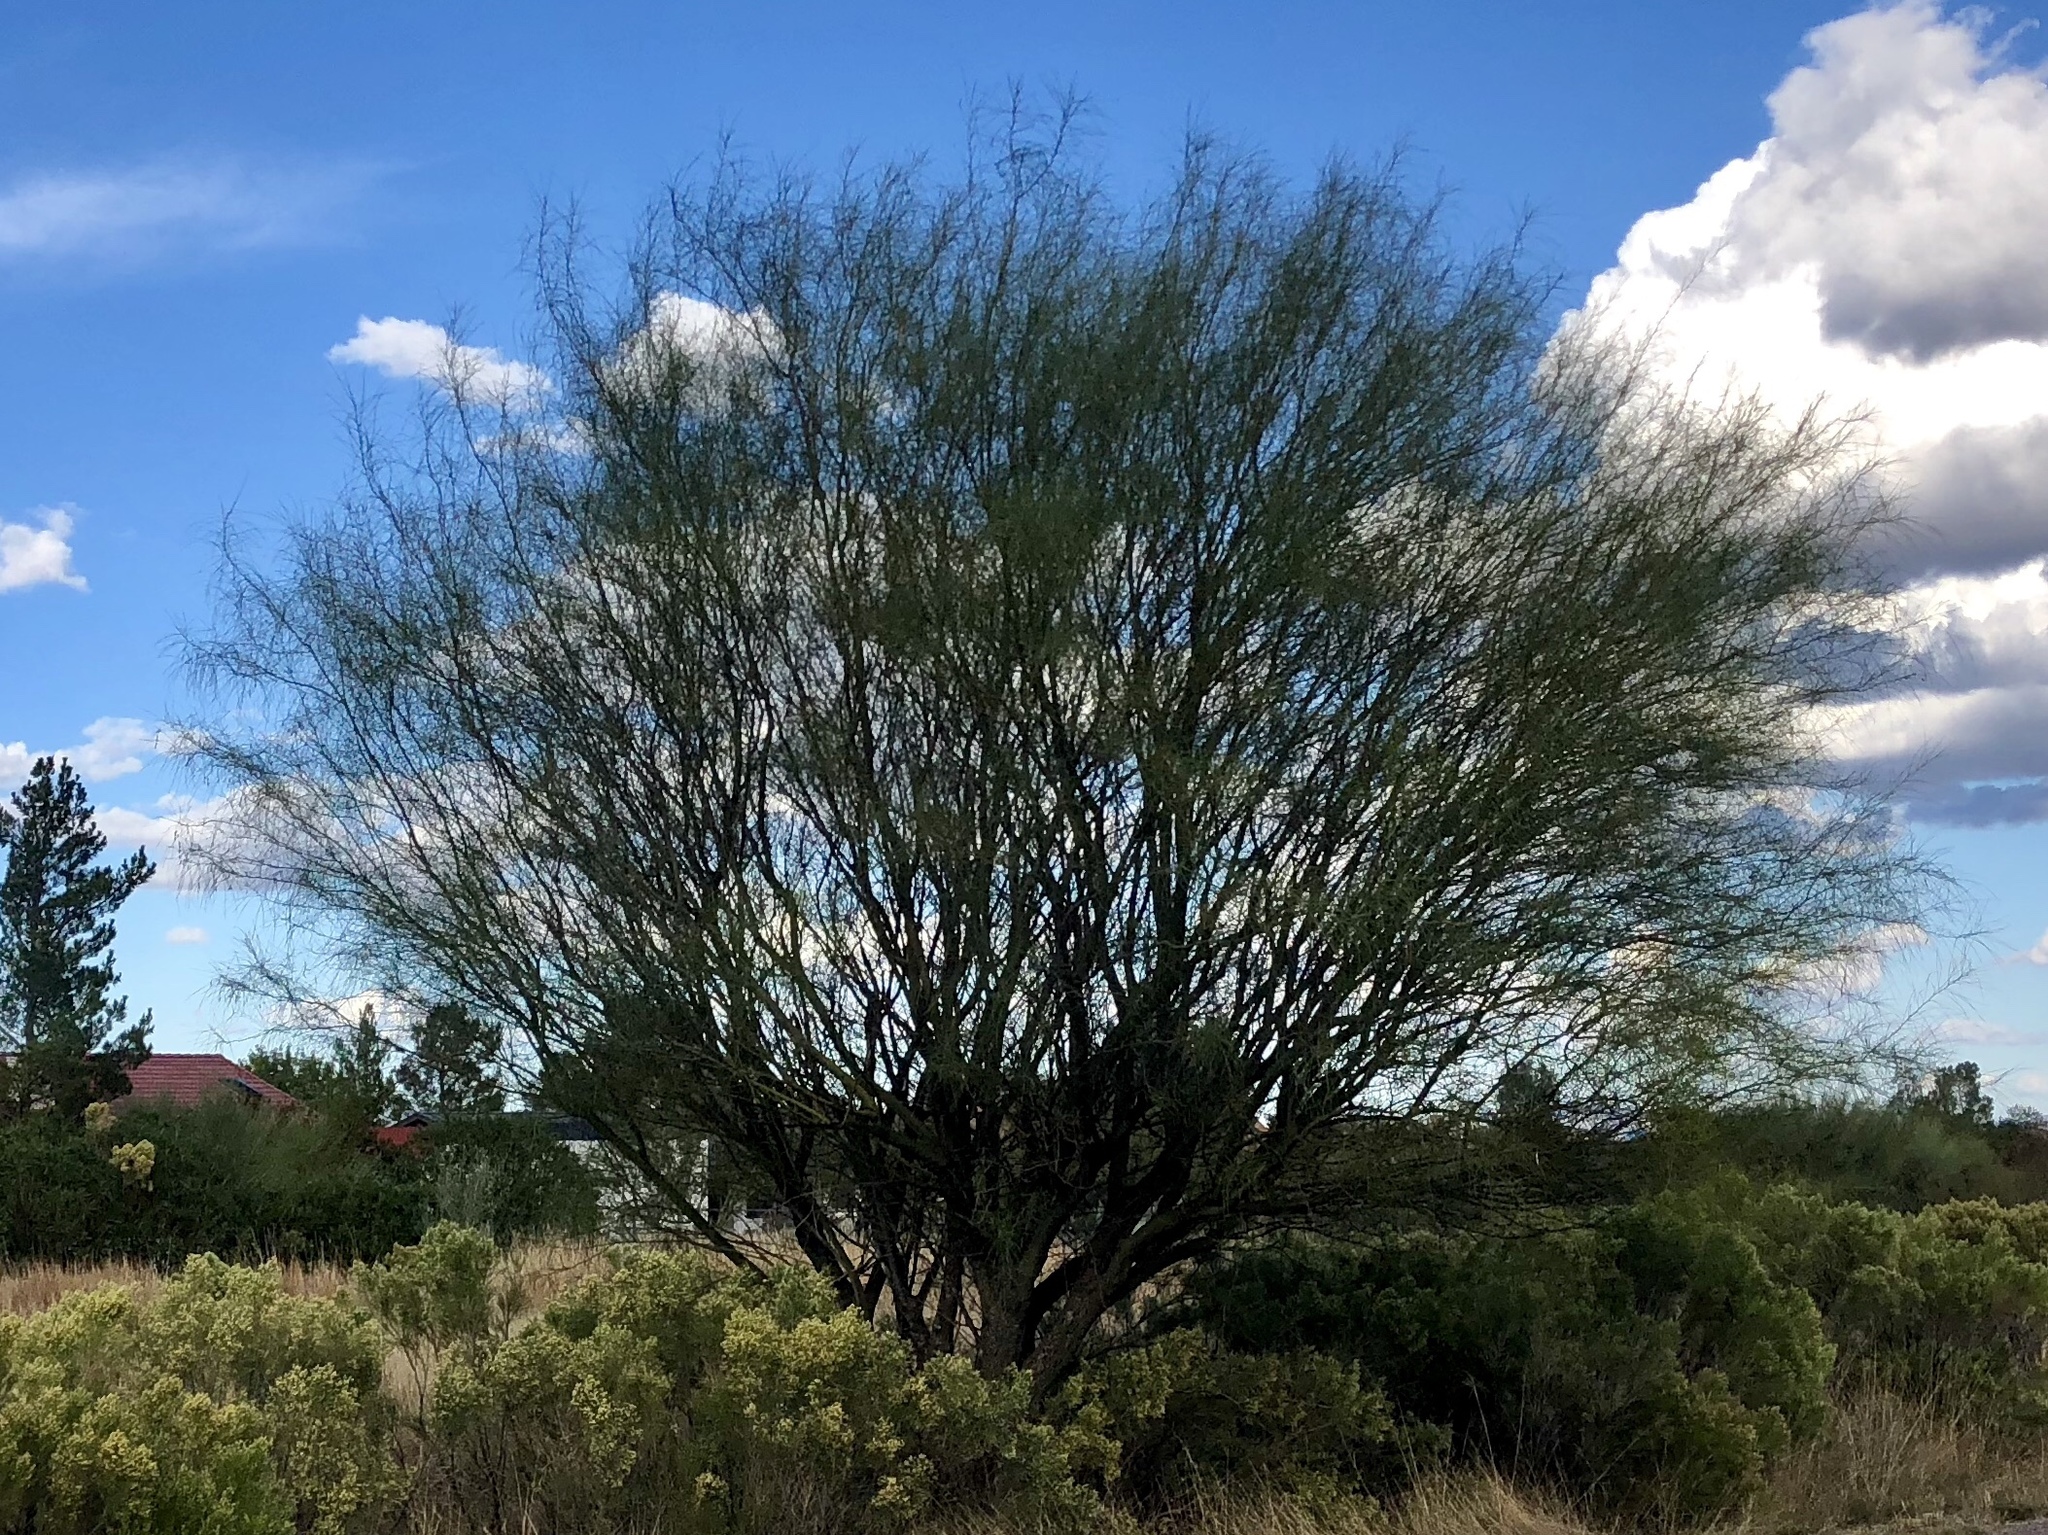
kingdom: Plantae
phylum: Tracheophyta
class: Magnoliopsida
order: Fabales
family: Fabaceae
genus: Parkinsonia
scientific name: Parkinsonia aculeata
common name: Jerusalem thorn
